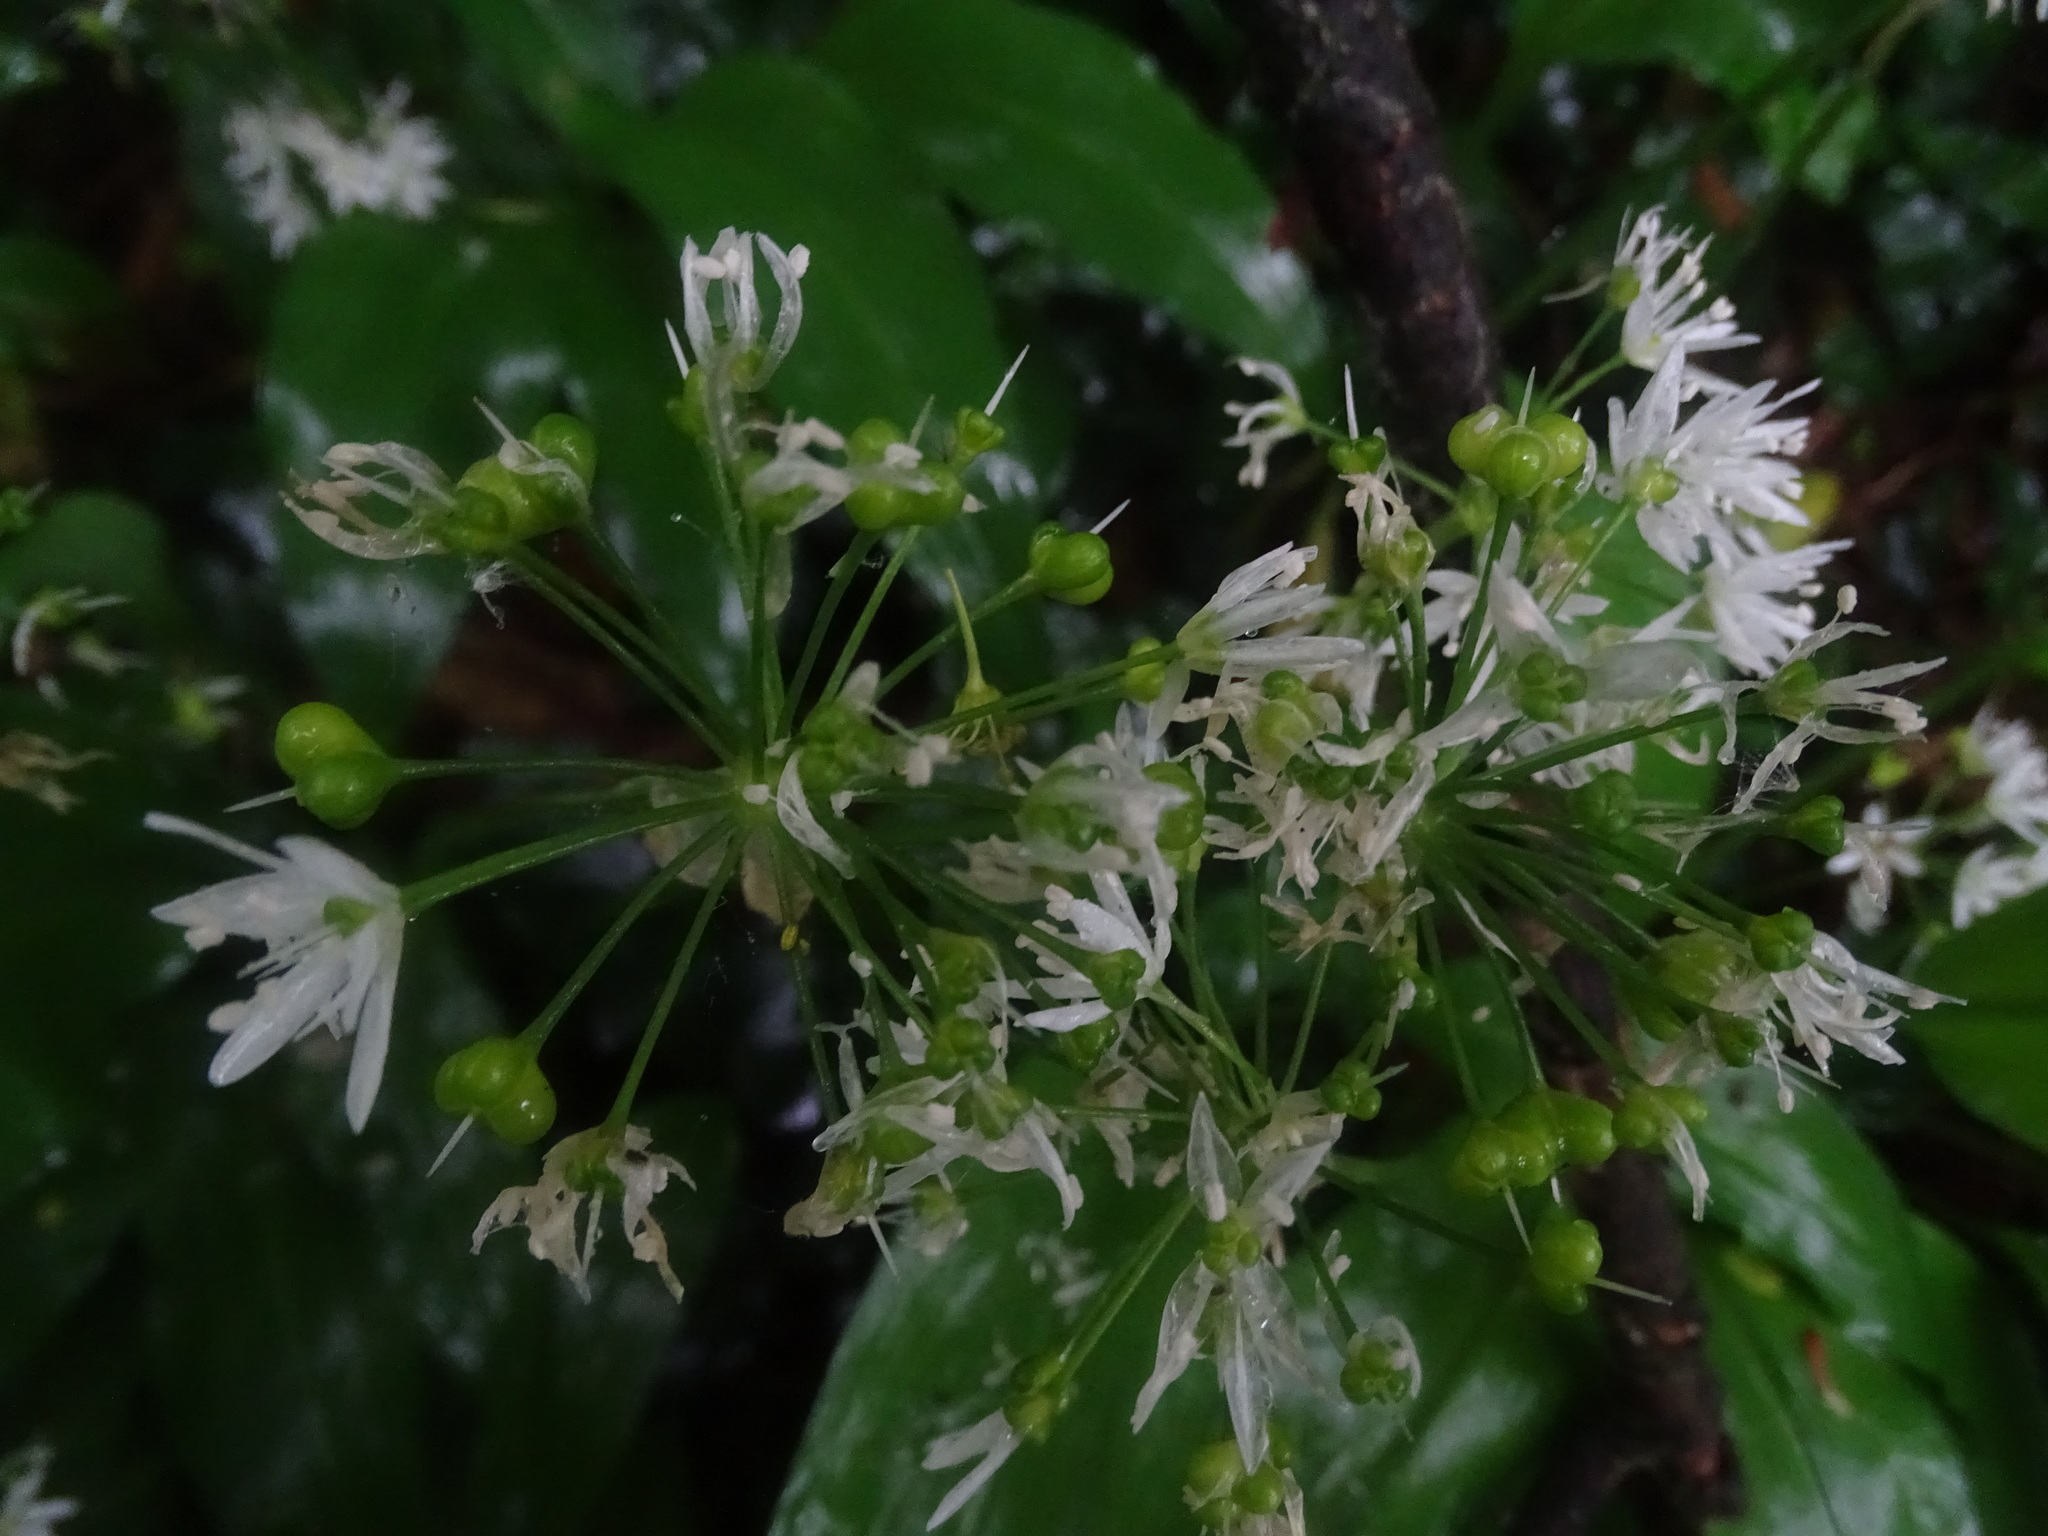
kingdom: Plantae
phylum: Tracheophyta
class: Liliopsida
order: Asparagales
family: Amaryllidaceae
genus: Allium
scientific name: Allium ursinum
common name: Ramsons
